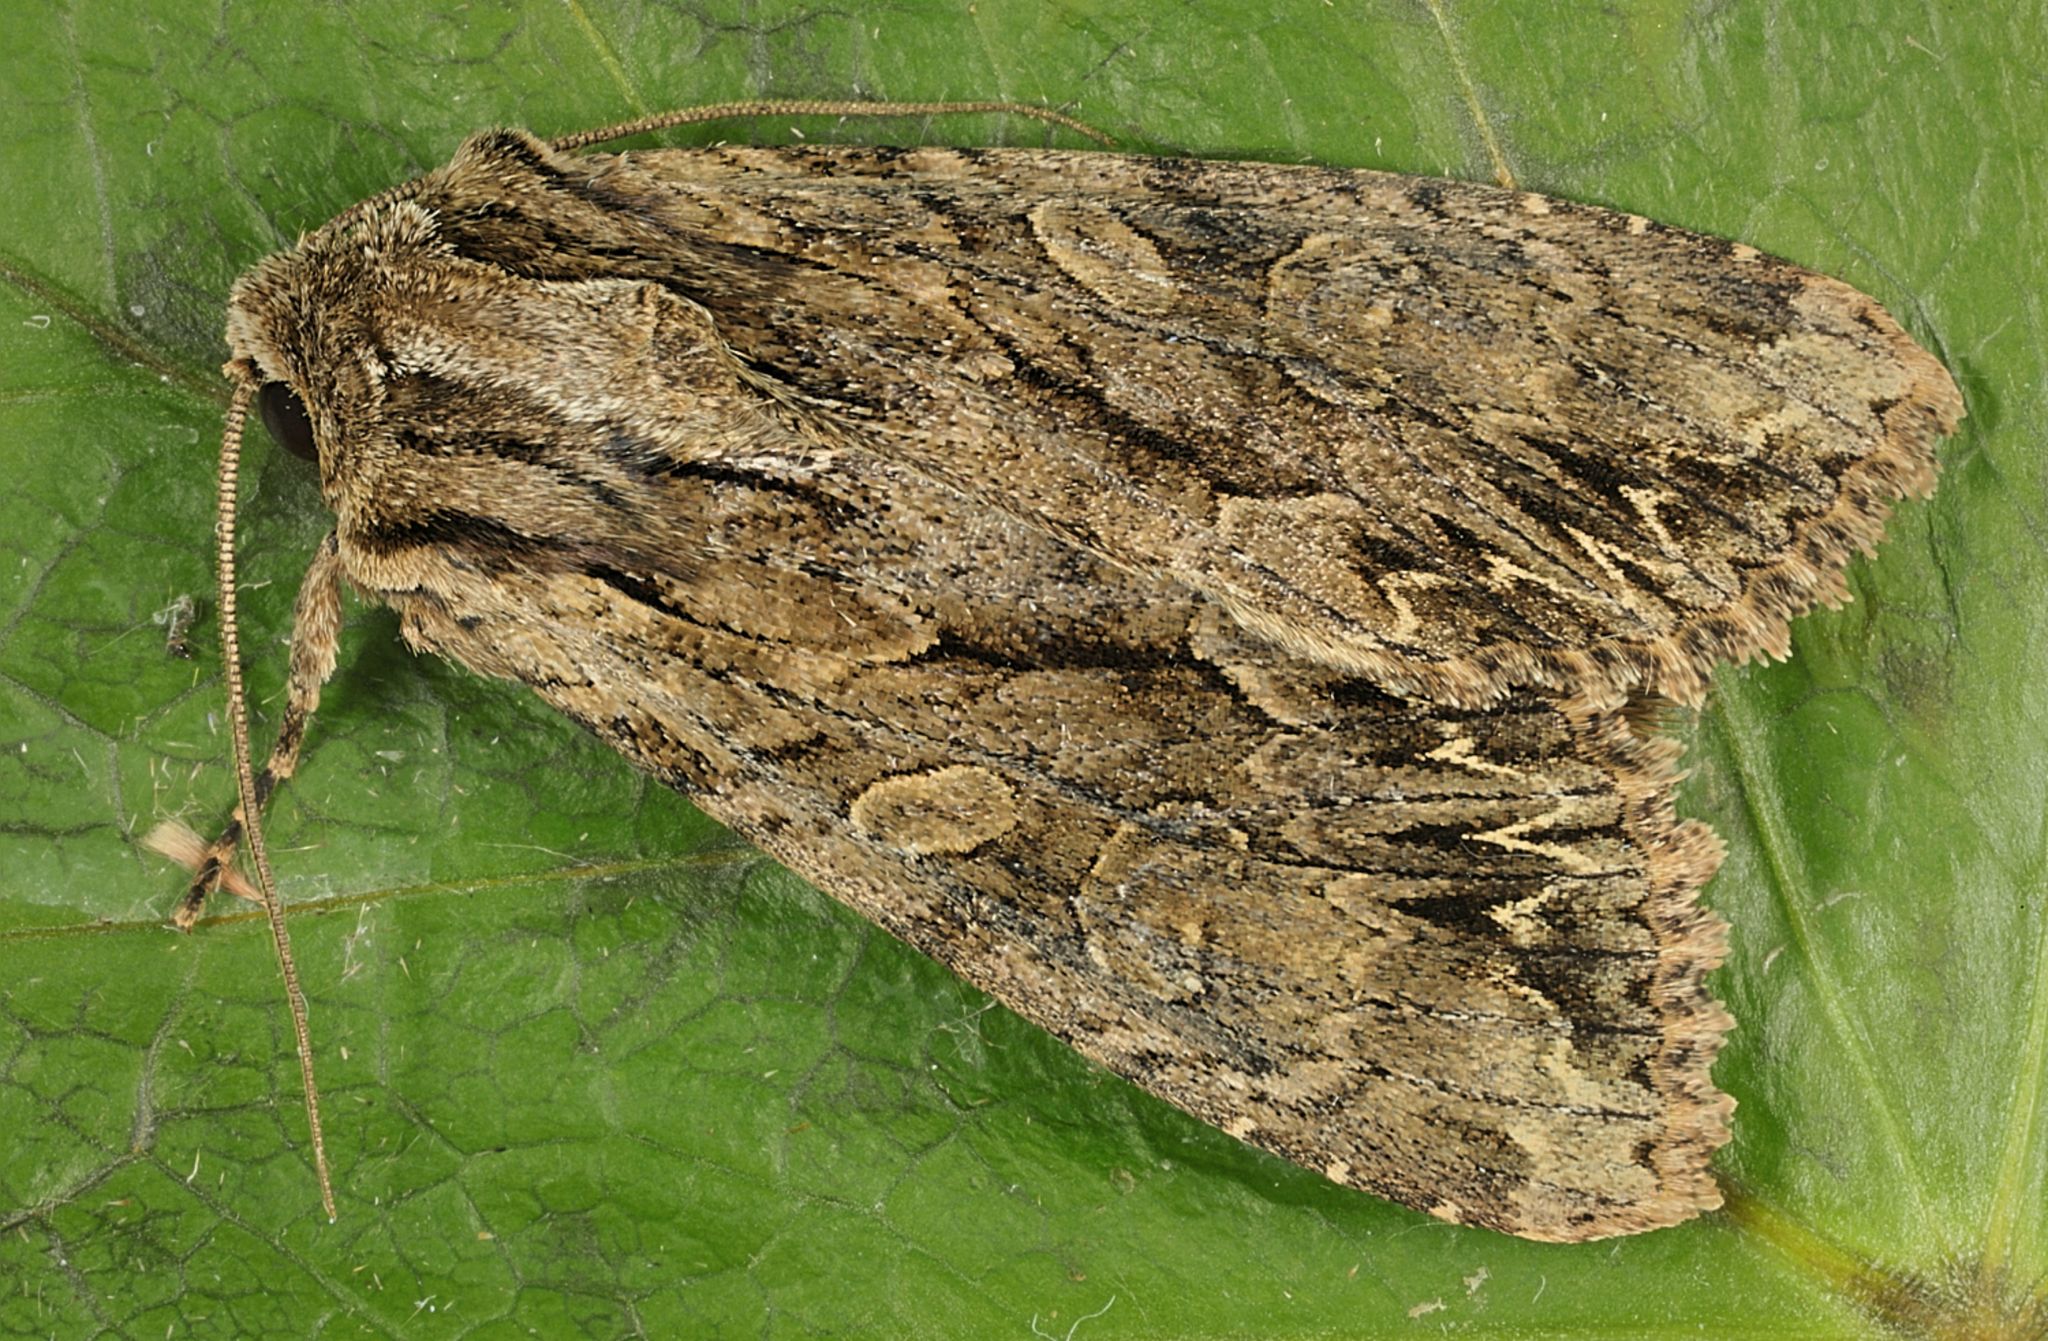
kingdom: Animalia
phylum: Arthropoda
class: Insecta
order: Lepidoptera
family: Noctuidae
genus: Apamea
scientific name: Apamea monoglypha
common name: Dark arches
